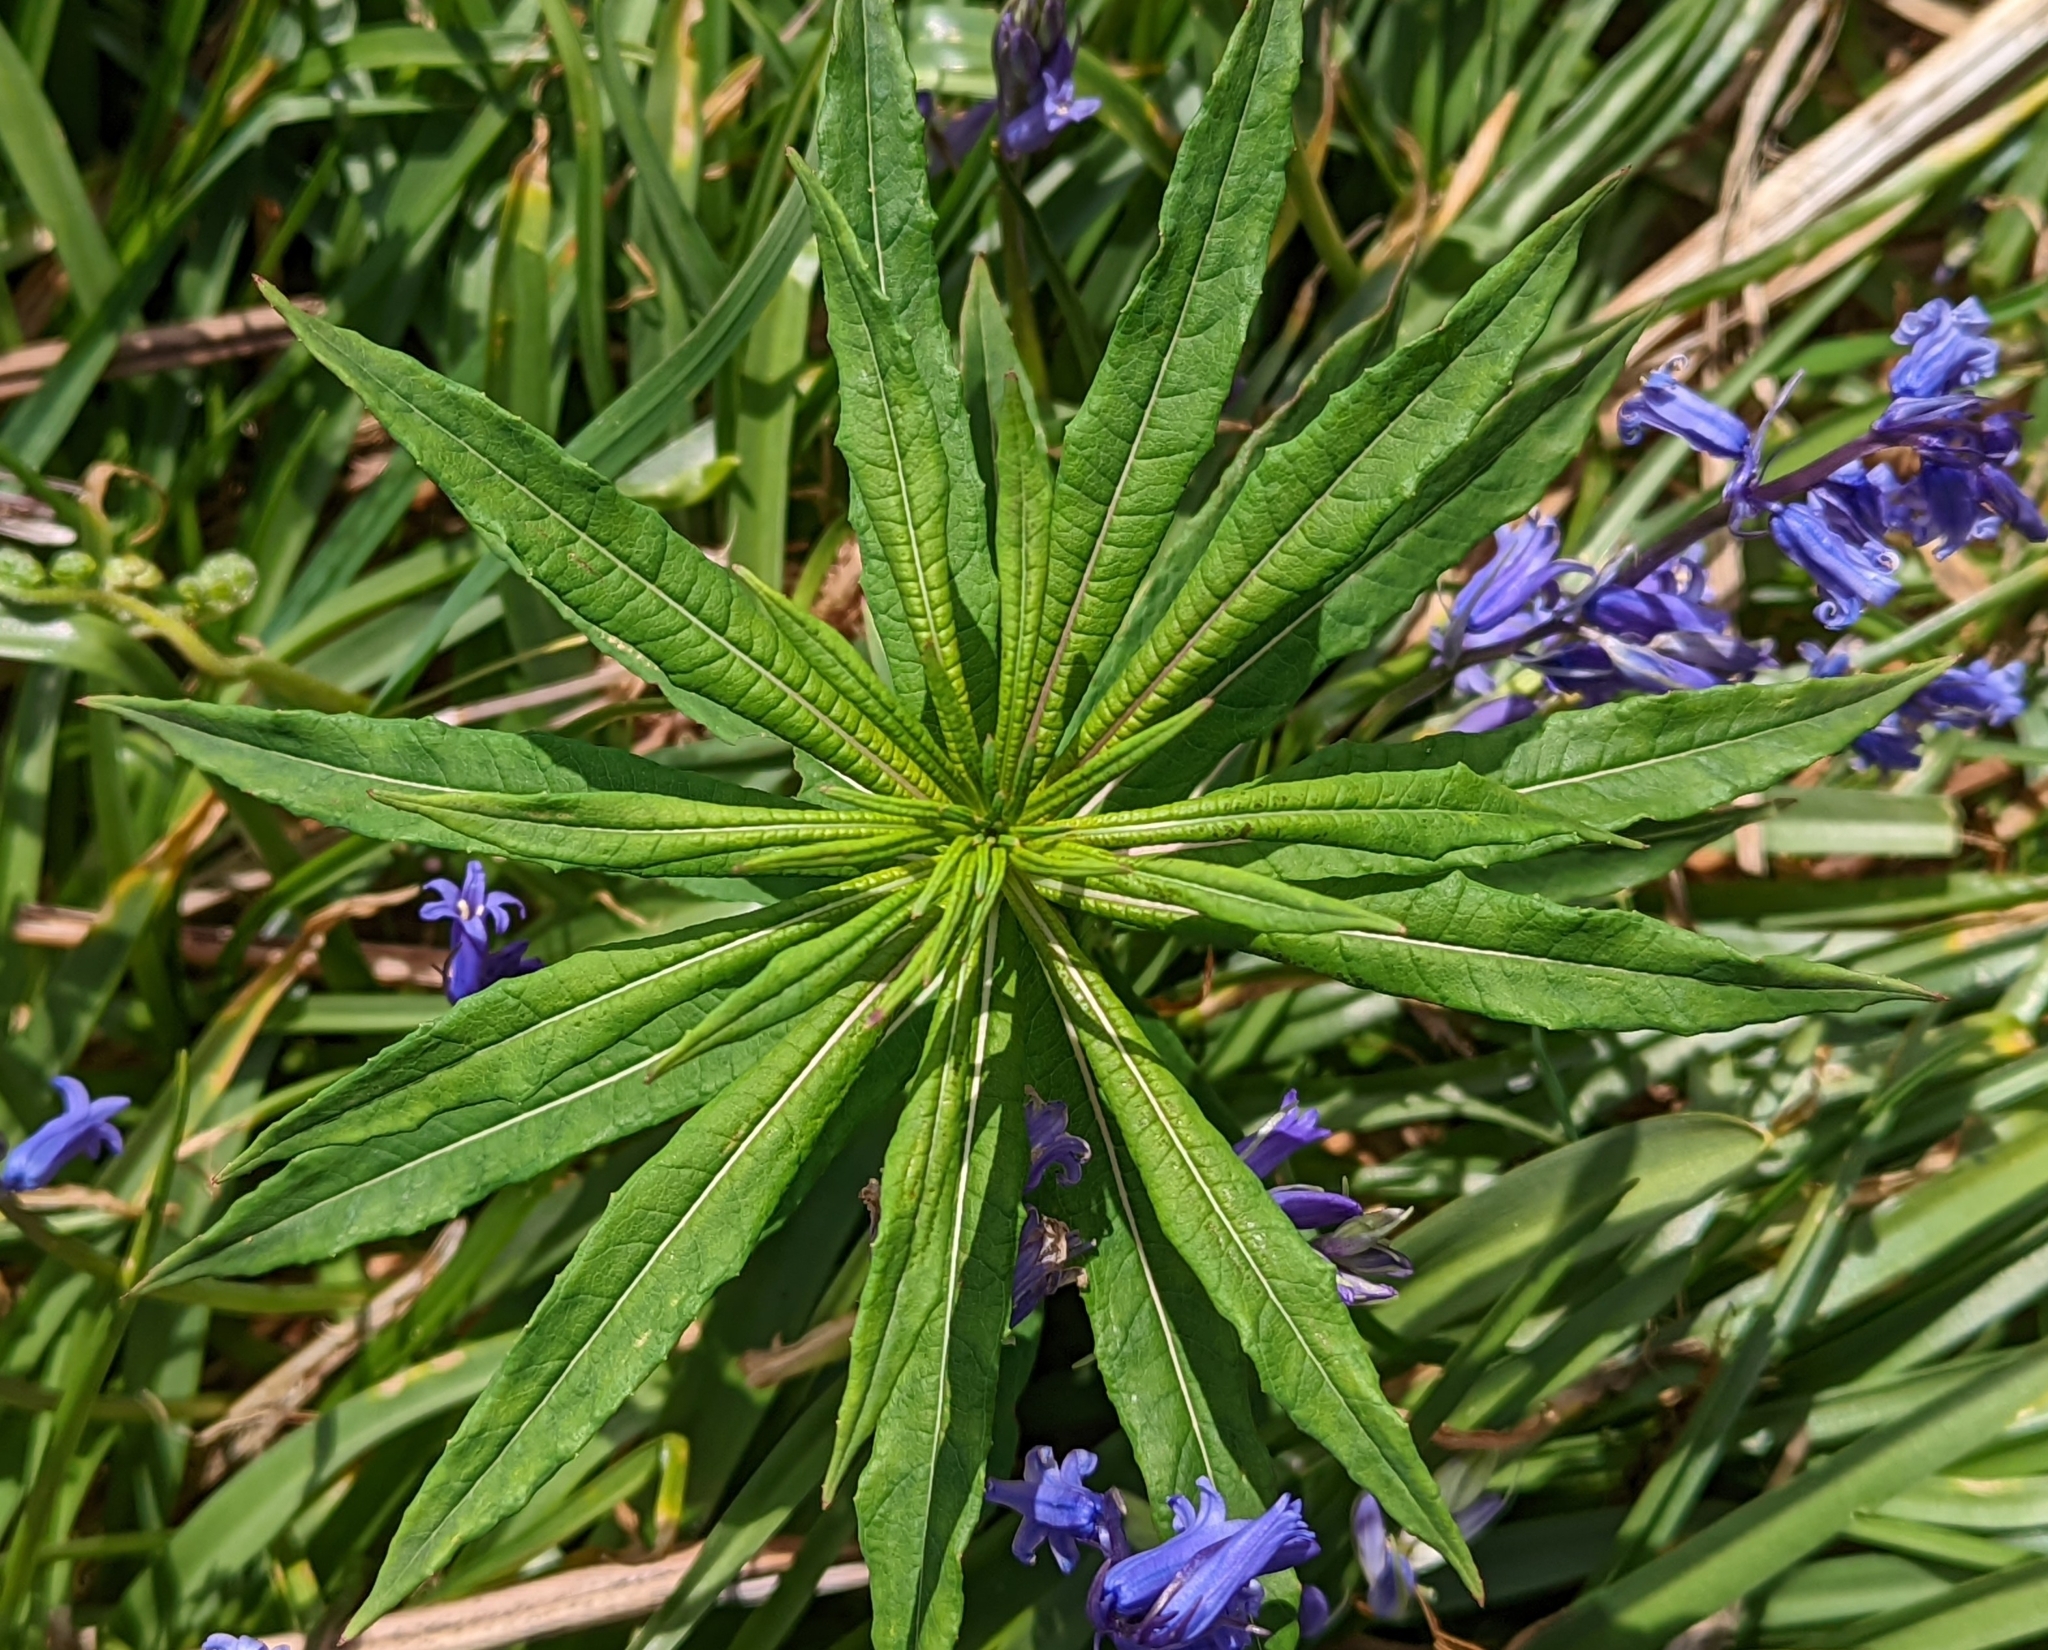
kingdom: Plantae
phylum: Tracheophyta
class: Magnoliopsida
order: Myrtales
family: Onagraceae
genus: Chamaenerion
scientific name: Chamaenerion angustifolium
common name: Fireweed
